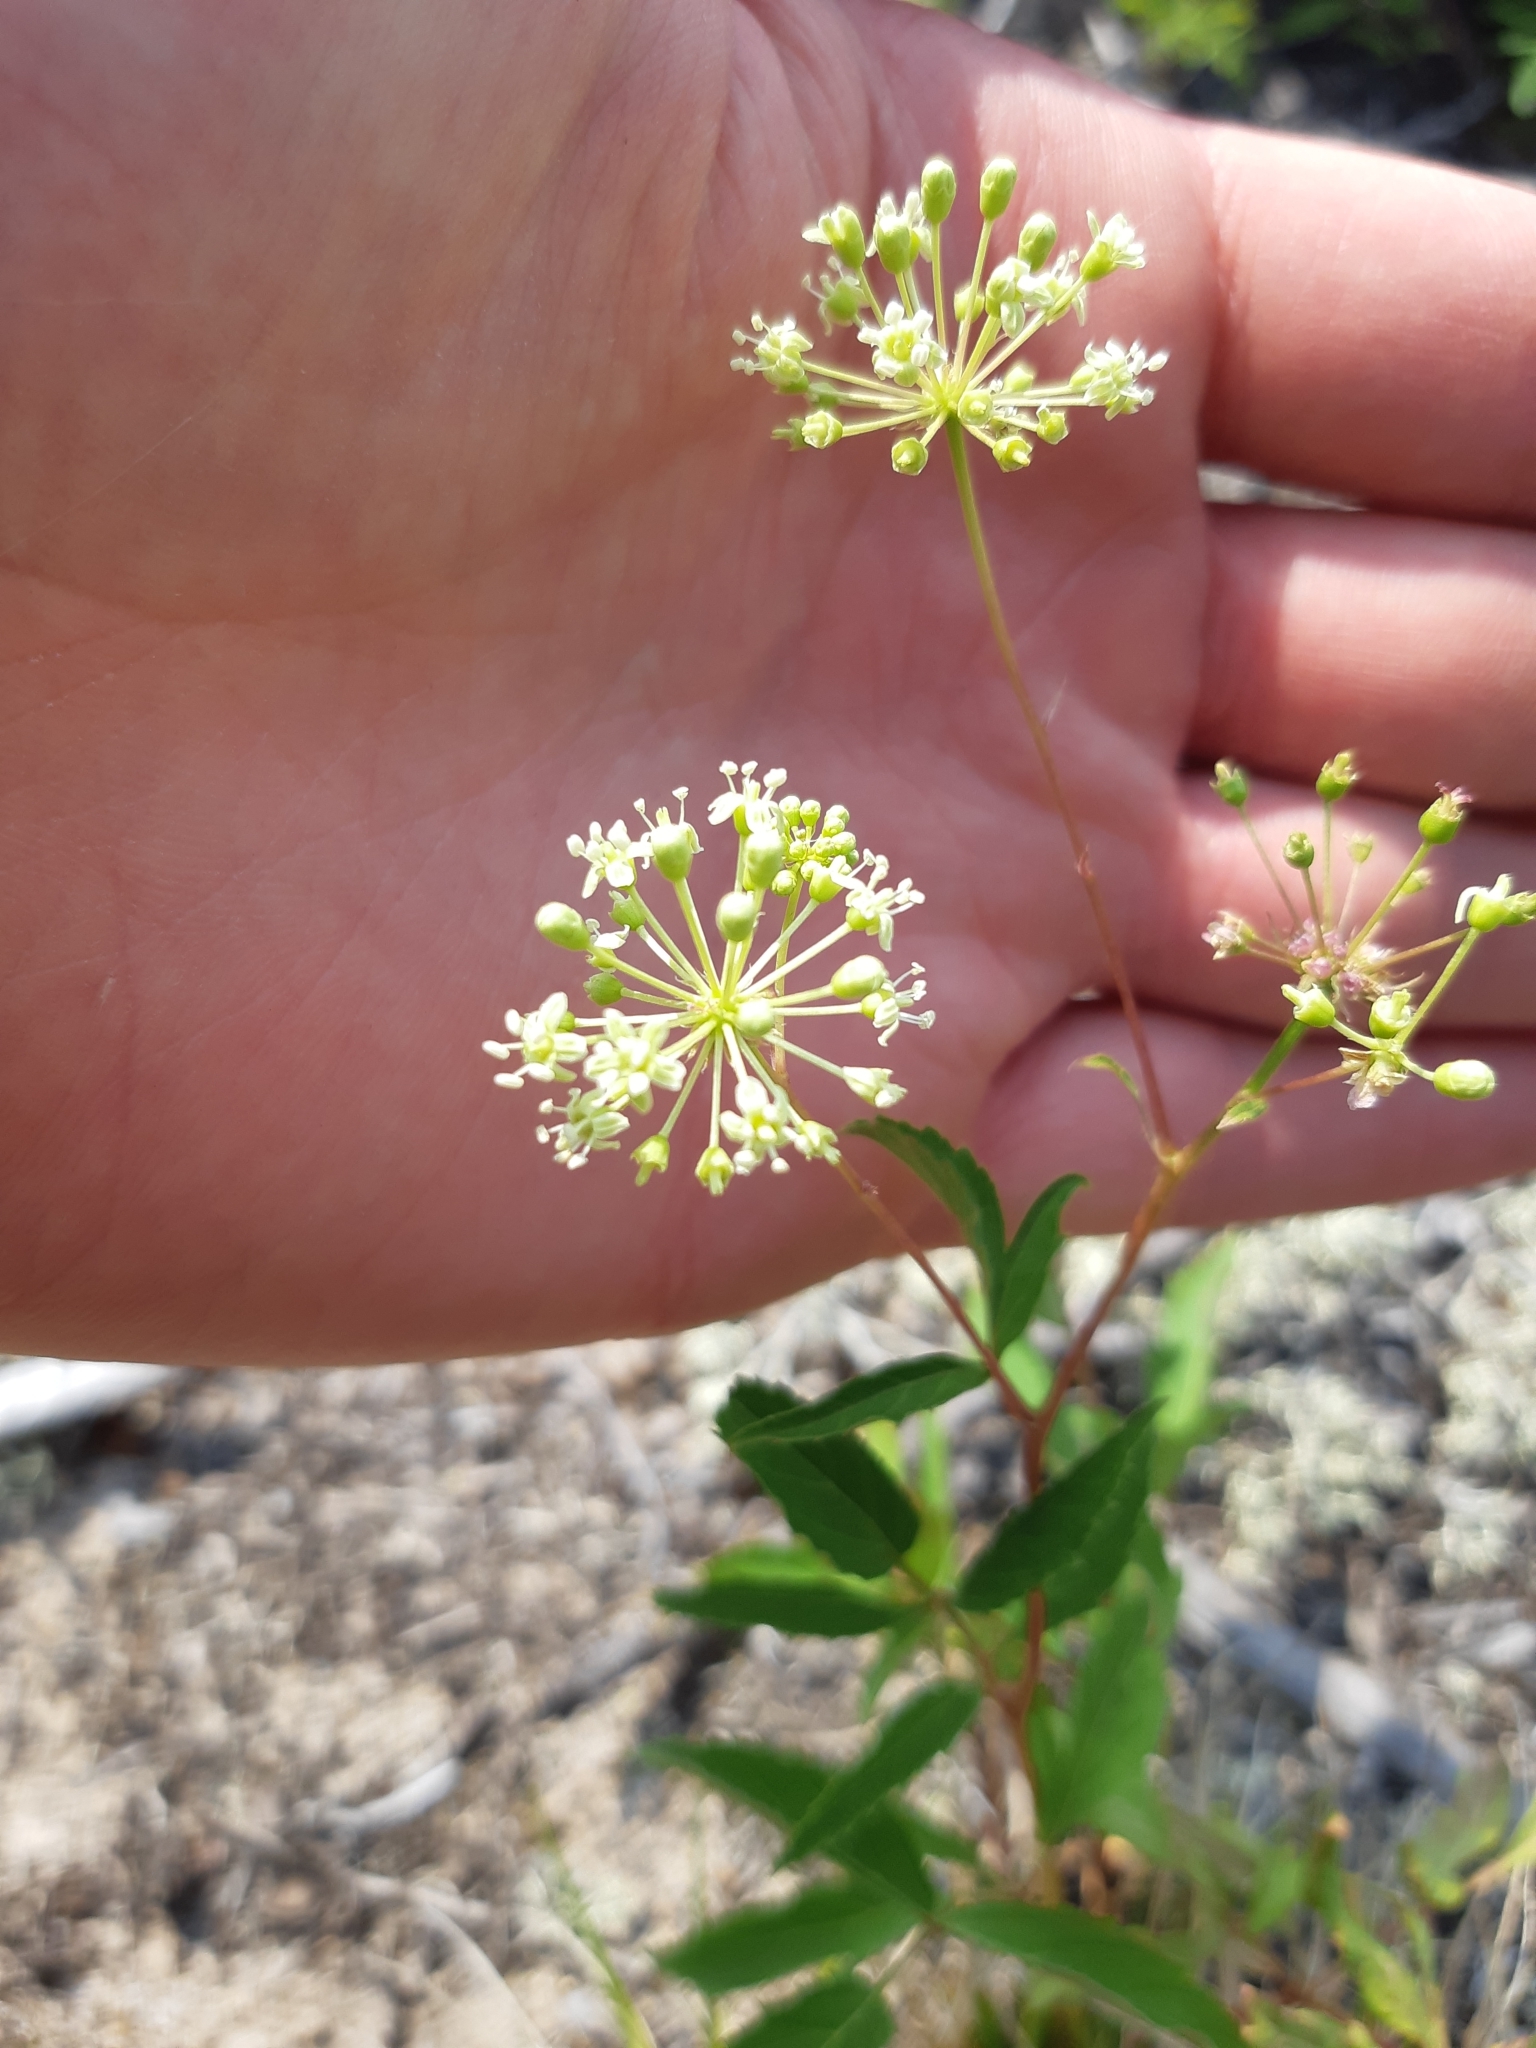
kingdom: Plantae
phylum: Tracheophyta
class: Magnoliopsida
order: Apiales
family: Araliaceae
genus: Aralia
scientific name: Aralia hispida
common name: Bristly sarsaparilla
